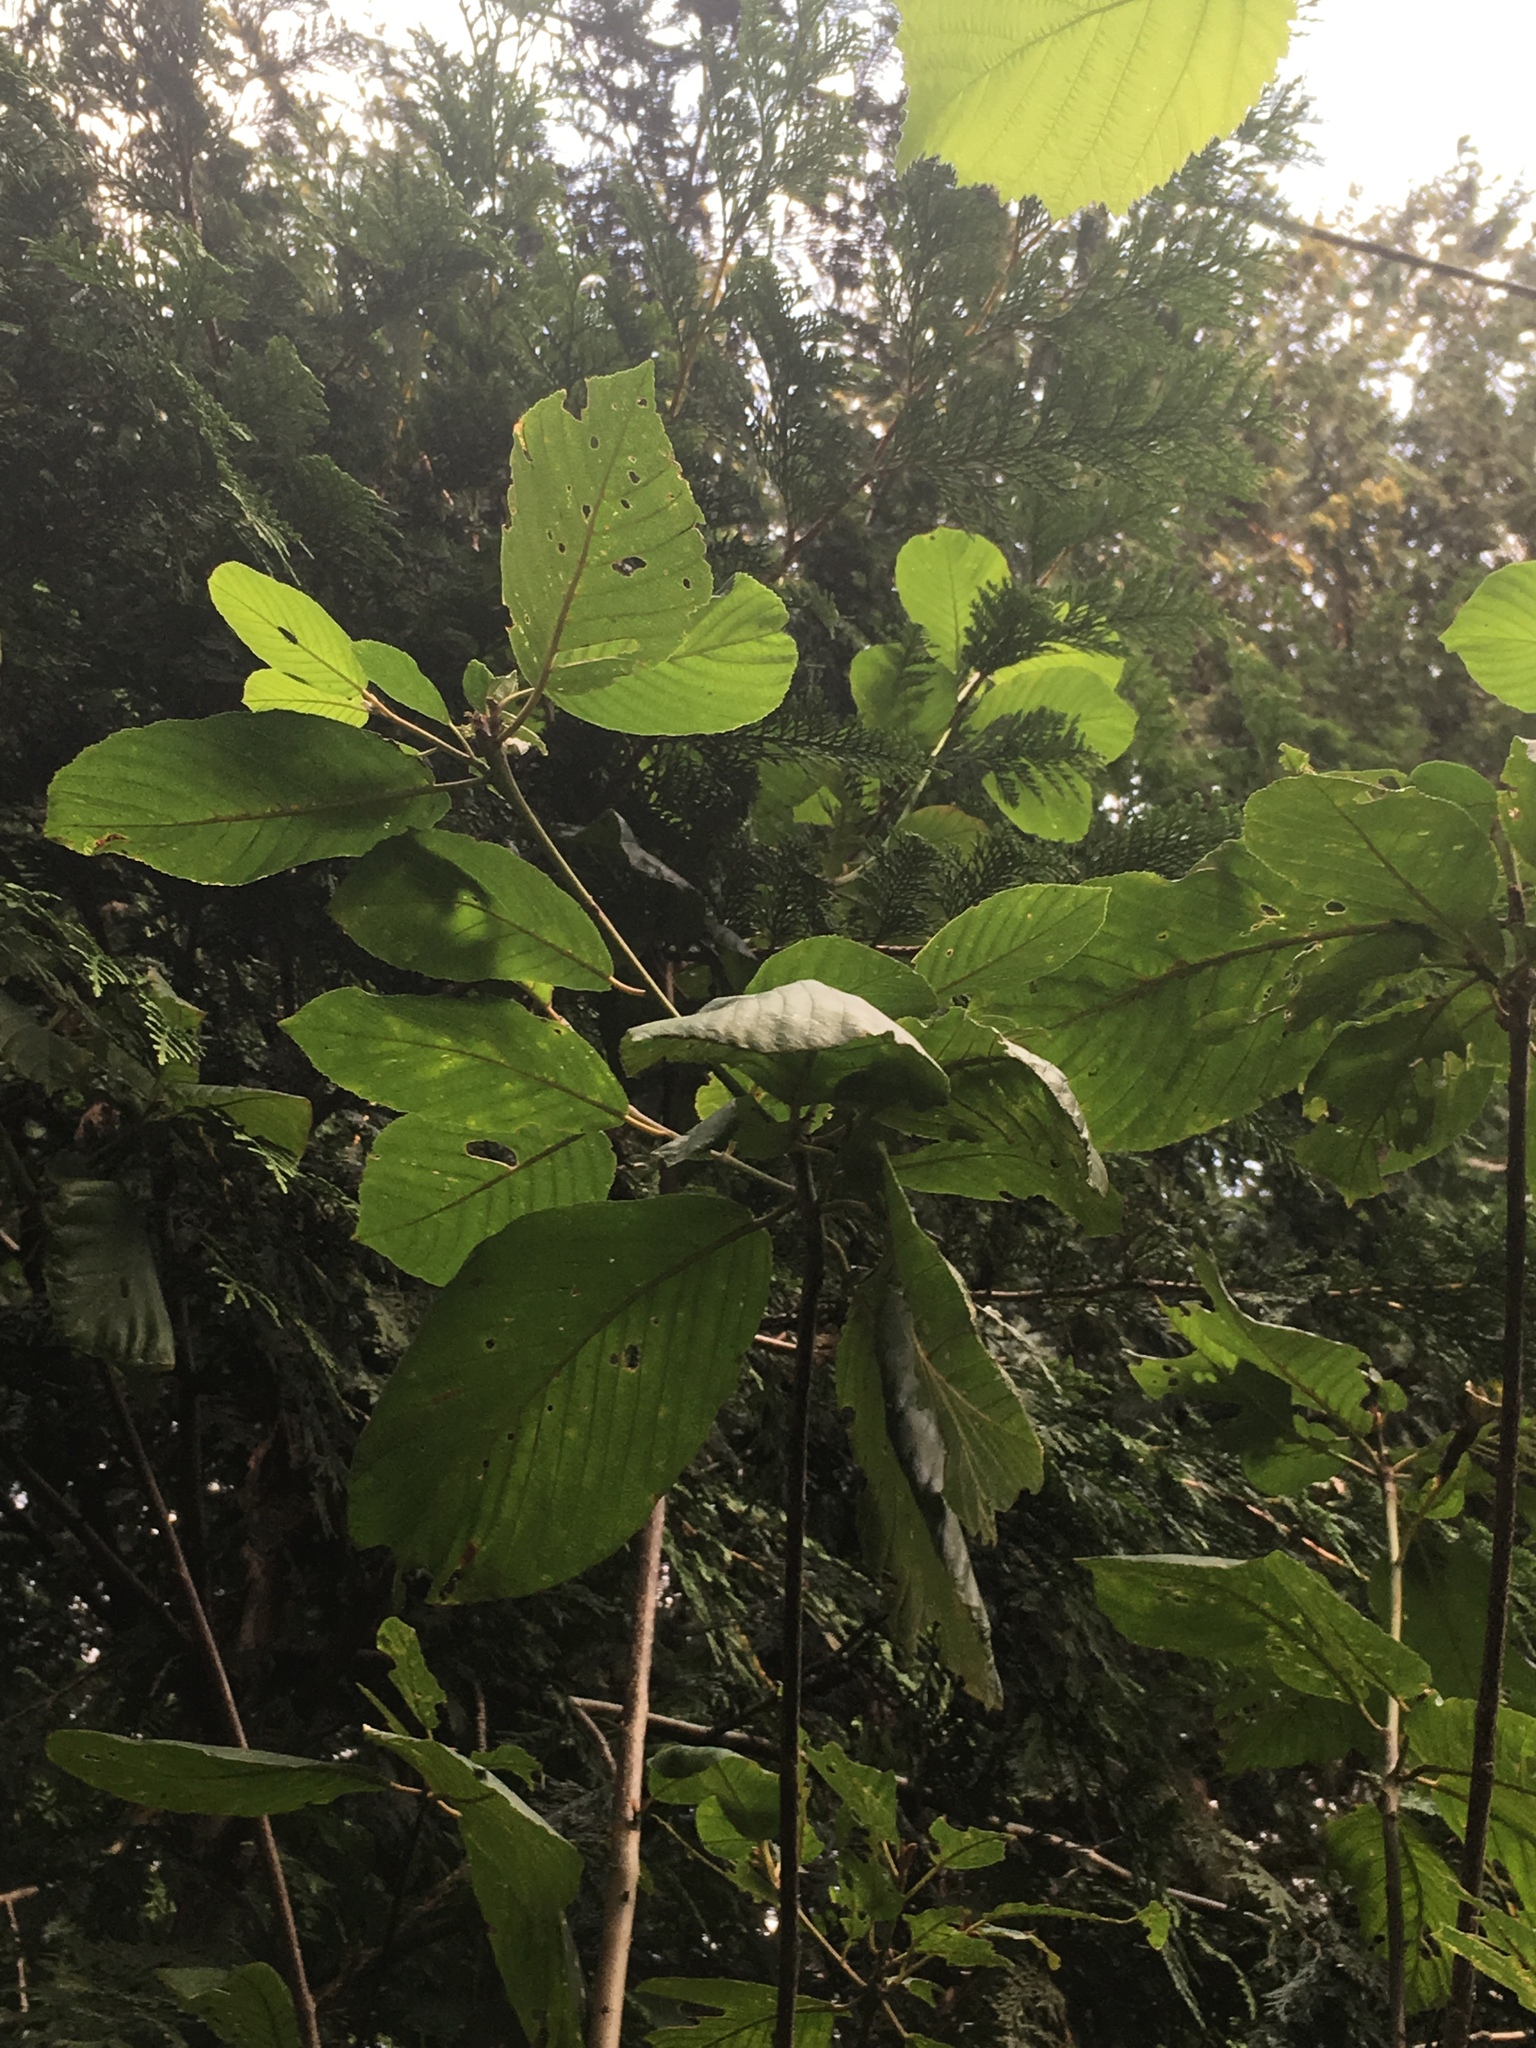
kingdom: Plantae
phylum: Tracheophyta
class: Magnoliopsida
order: Rosales
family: Rhamnaceae
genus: Frangula
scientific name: Frangula purshiana
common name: Cascara buckthorn
